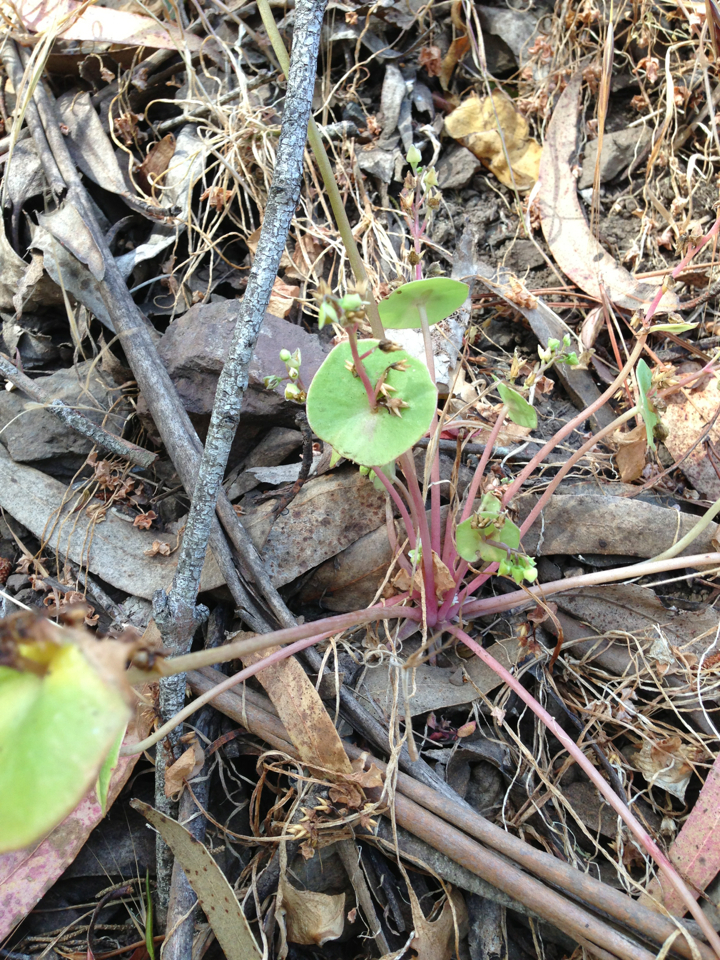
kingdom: Plantae
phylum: Tracheophyta
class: Magnoliopsida
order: Caryophyllales
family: Montiaceae
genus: Claytonia
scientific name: Claytonia perfoliata
